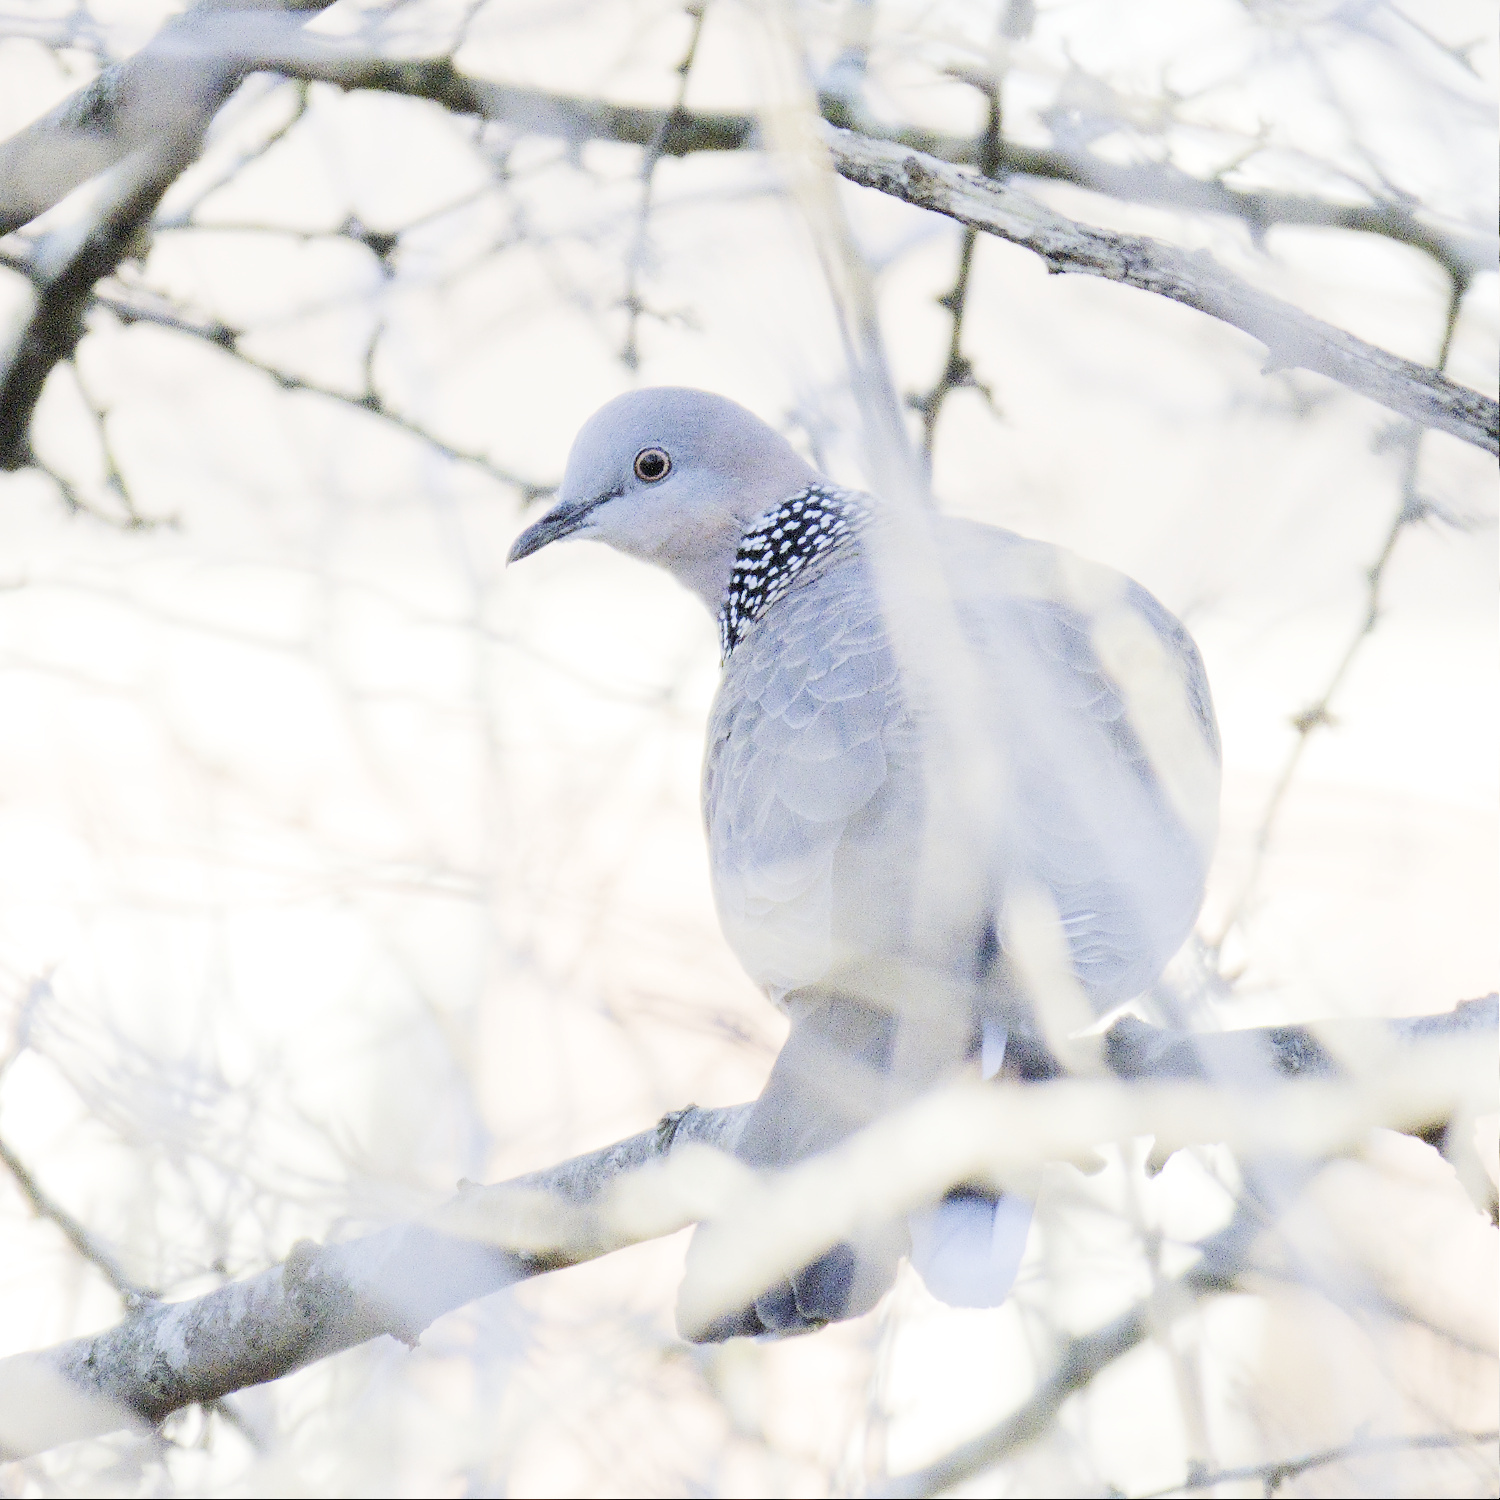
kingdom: Animalia
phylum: Chordata
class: Aves
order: Columbiformes
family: Columbidae
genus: Spilopelia
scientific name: Spilopelia chinensis
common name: Spotted dove
